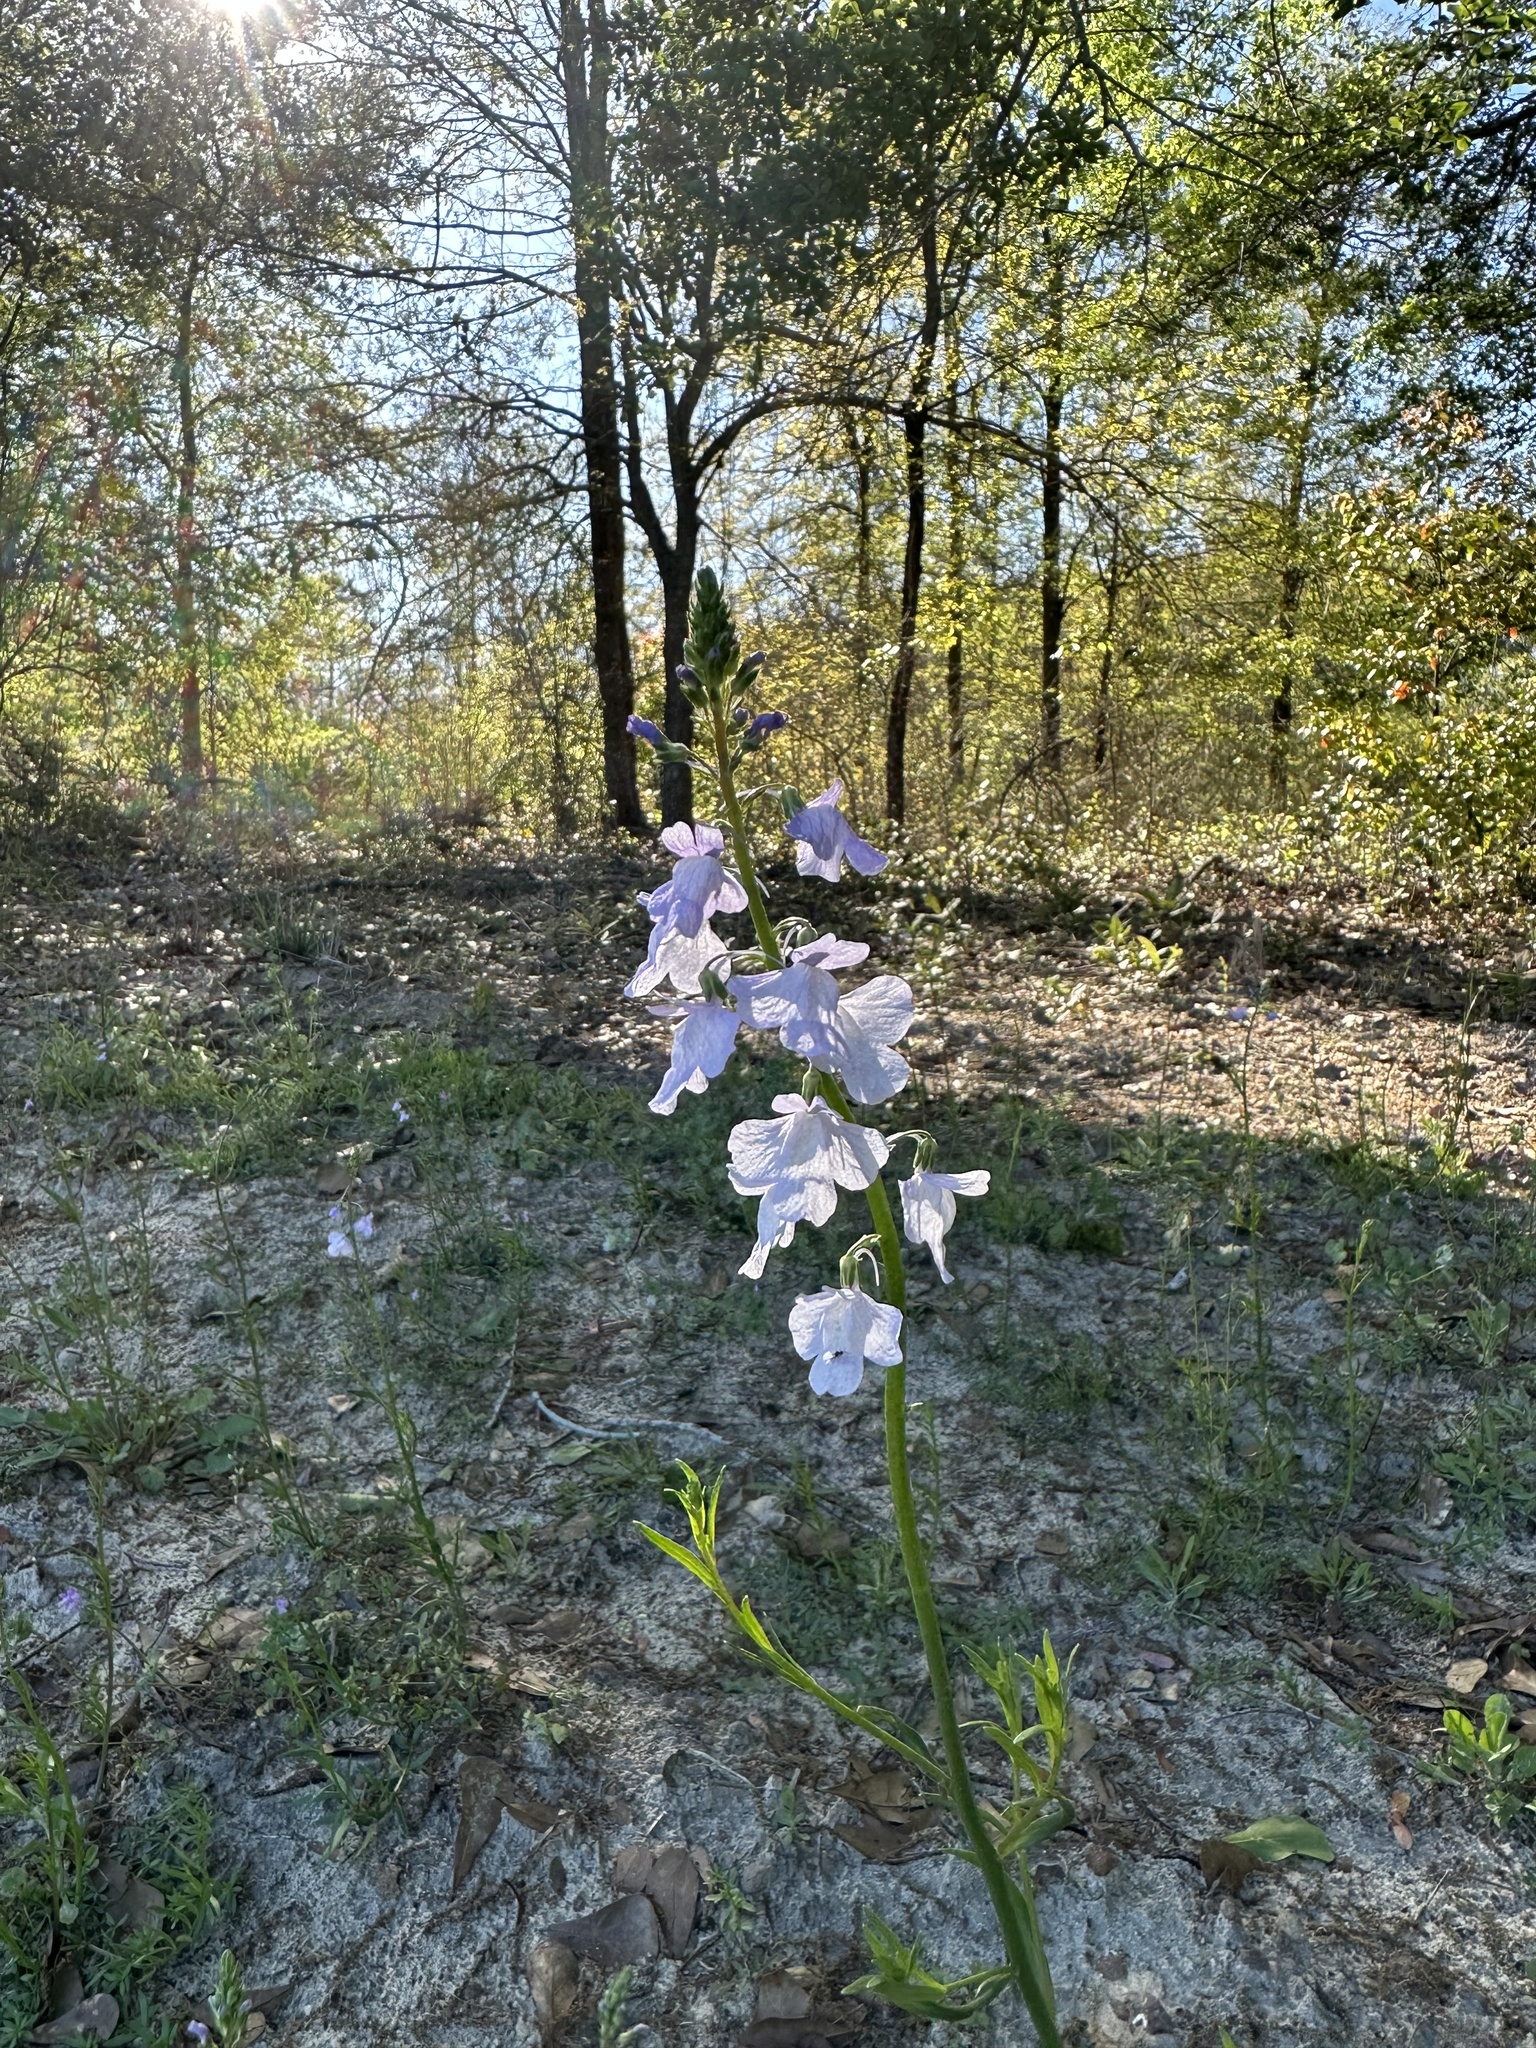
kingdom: Plantae
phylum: Tracheophyta
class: Magnoliopsida
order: Lamiales
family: Plantaginaceae
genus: Nuttallanthus
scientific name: Nuttallanthus texanus
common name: Texas toadflax
